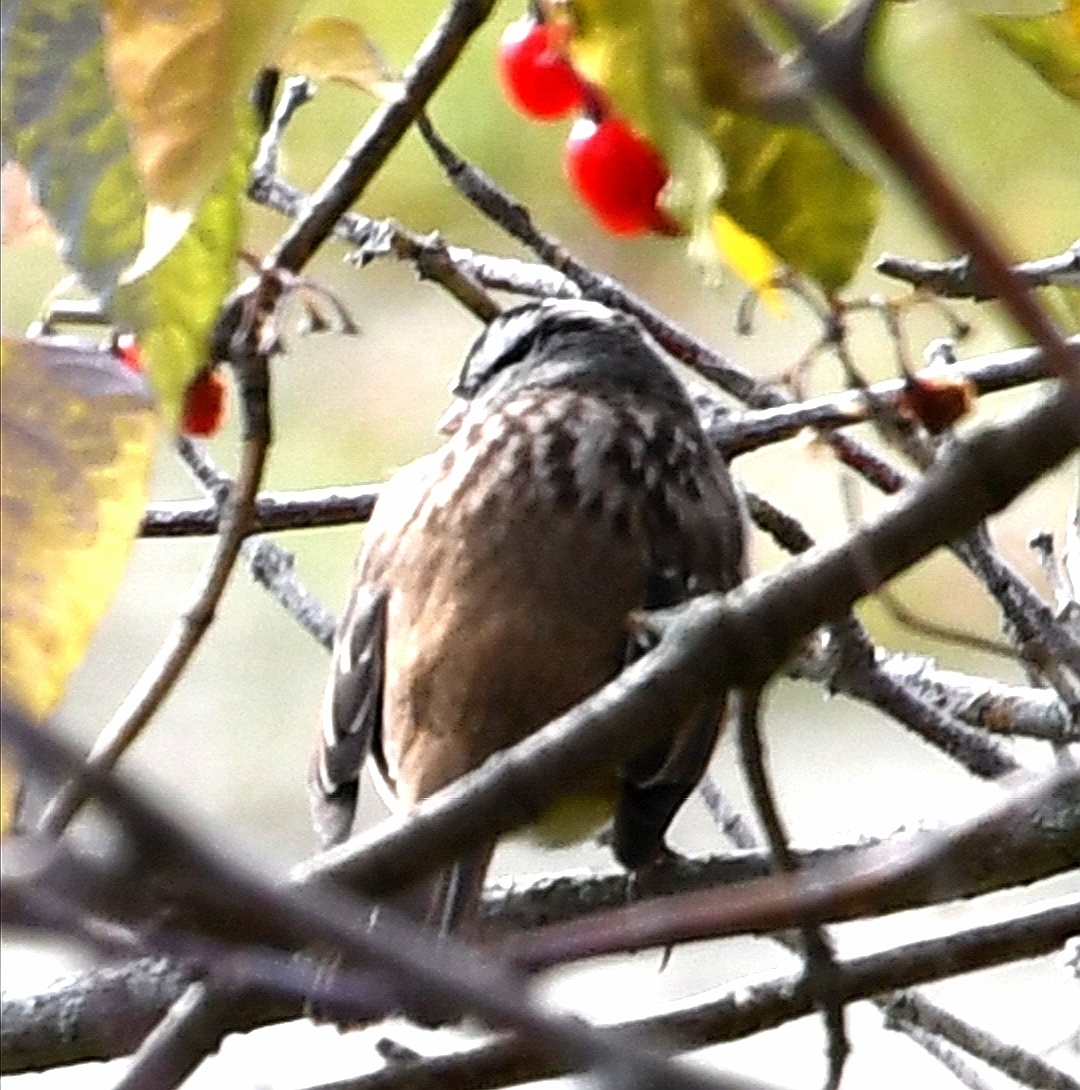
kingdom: Animalia
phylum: Chordata
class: Aves
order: Passeriformes
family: Passerellidae
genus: Zonotrichia
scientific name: Zonotrichia leucophrys
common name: White-crowned sparrow
